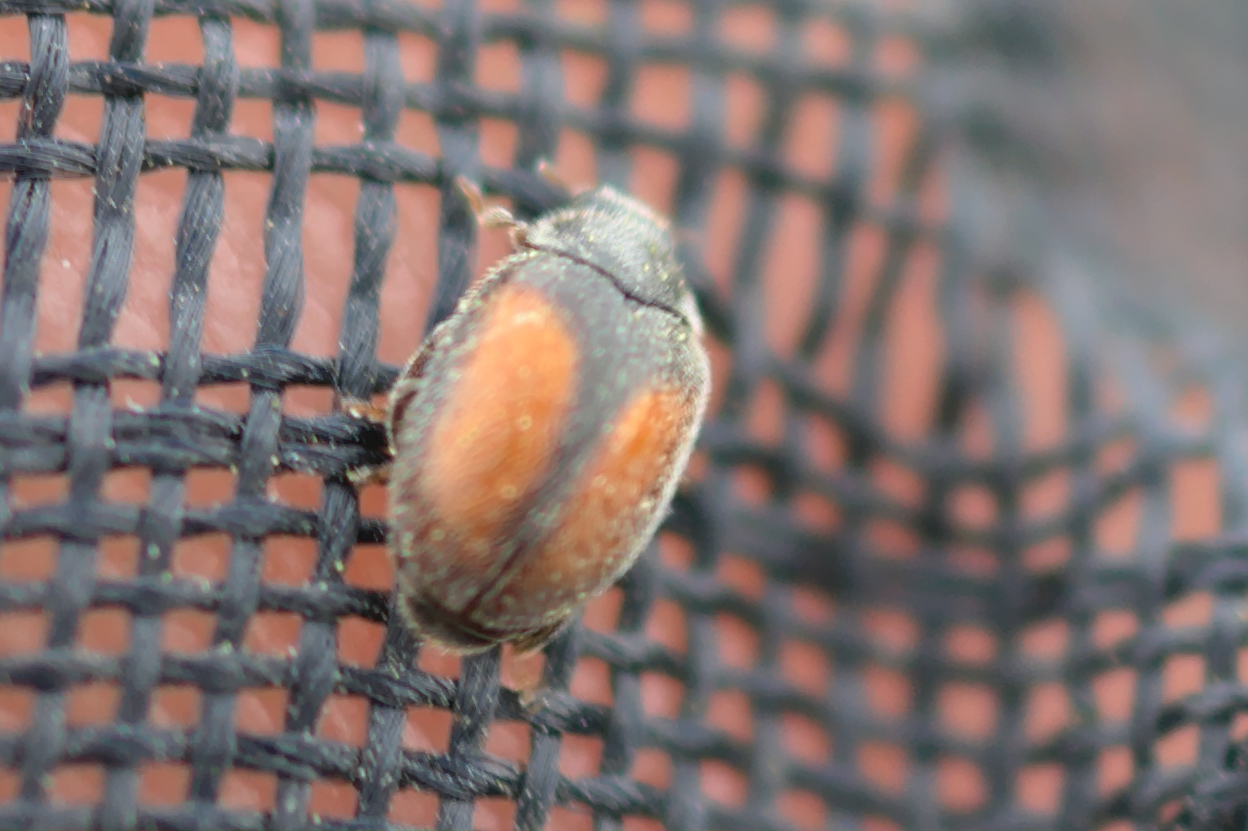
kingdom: Animalia
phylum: Arthropoda
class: Insecta
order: Coleoptera
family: Coccinellidae
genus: Scymnus
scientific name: Scymnus suturalis
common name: Ladybird beetle
